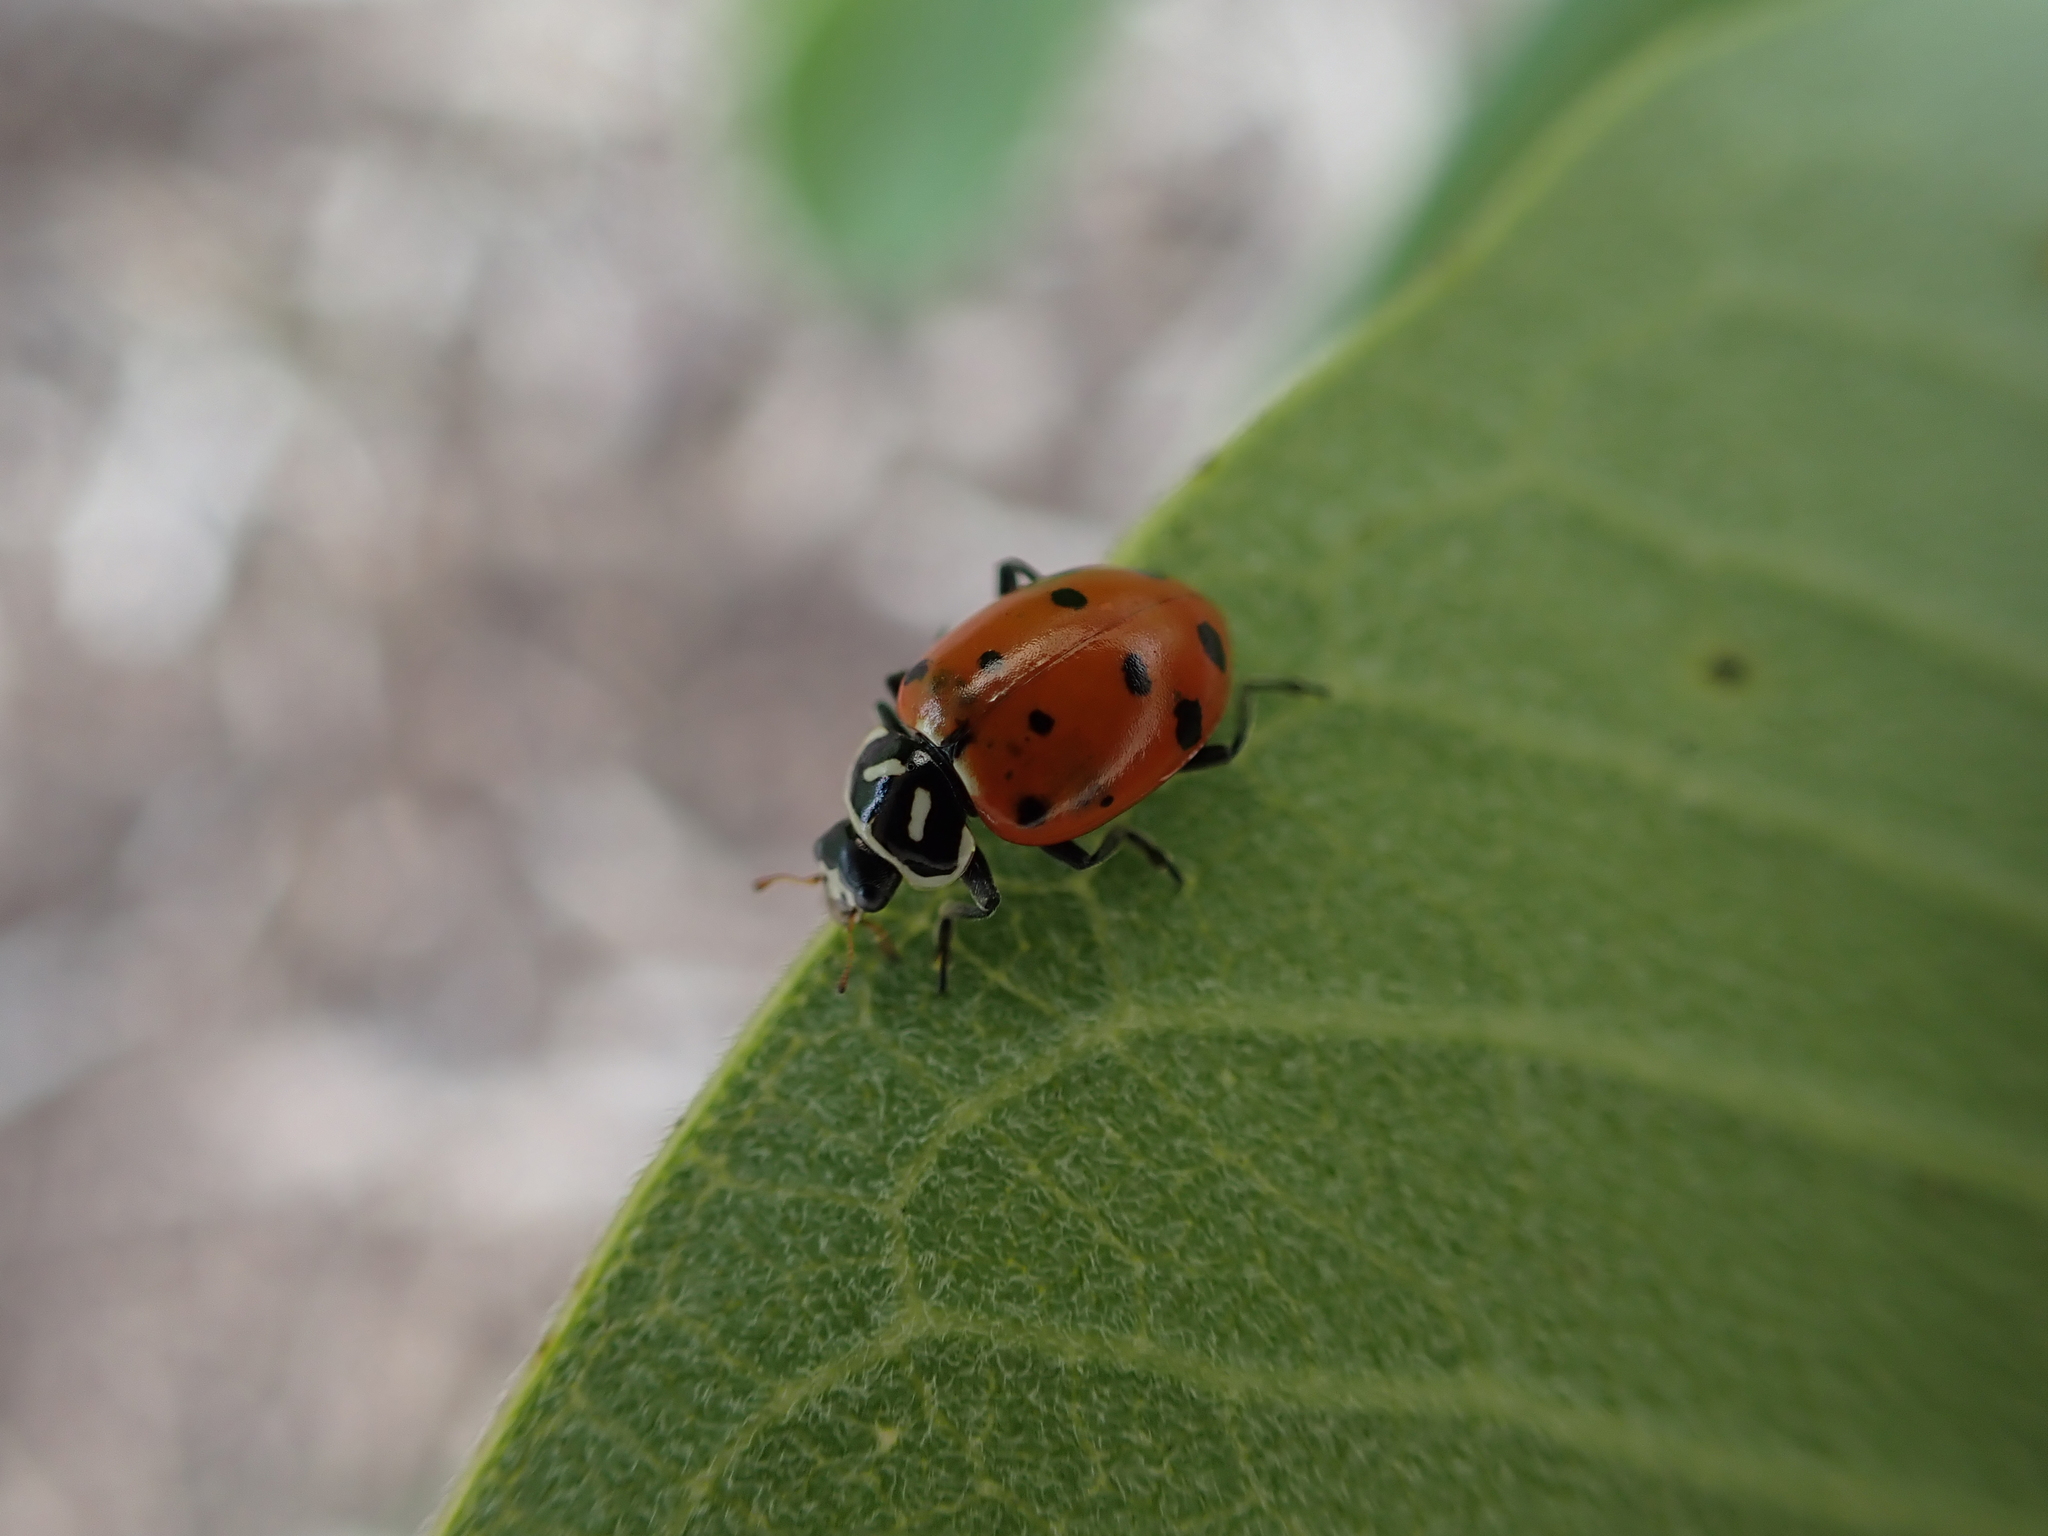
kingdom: Animalia
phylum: Arthropoda
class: Insecta
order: Coleoptera
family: Coccinellidae
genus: Hippodamia
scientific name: Hippodamia convergens
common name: Convergent lady beetle
